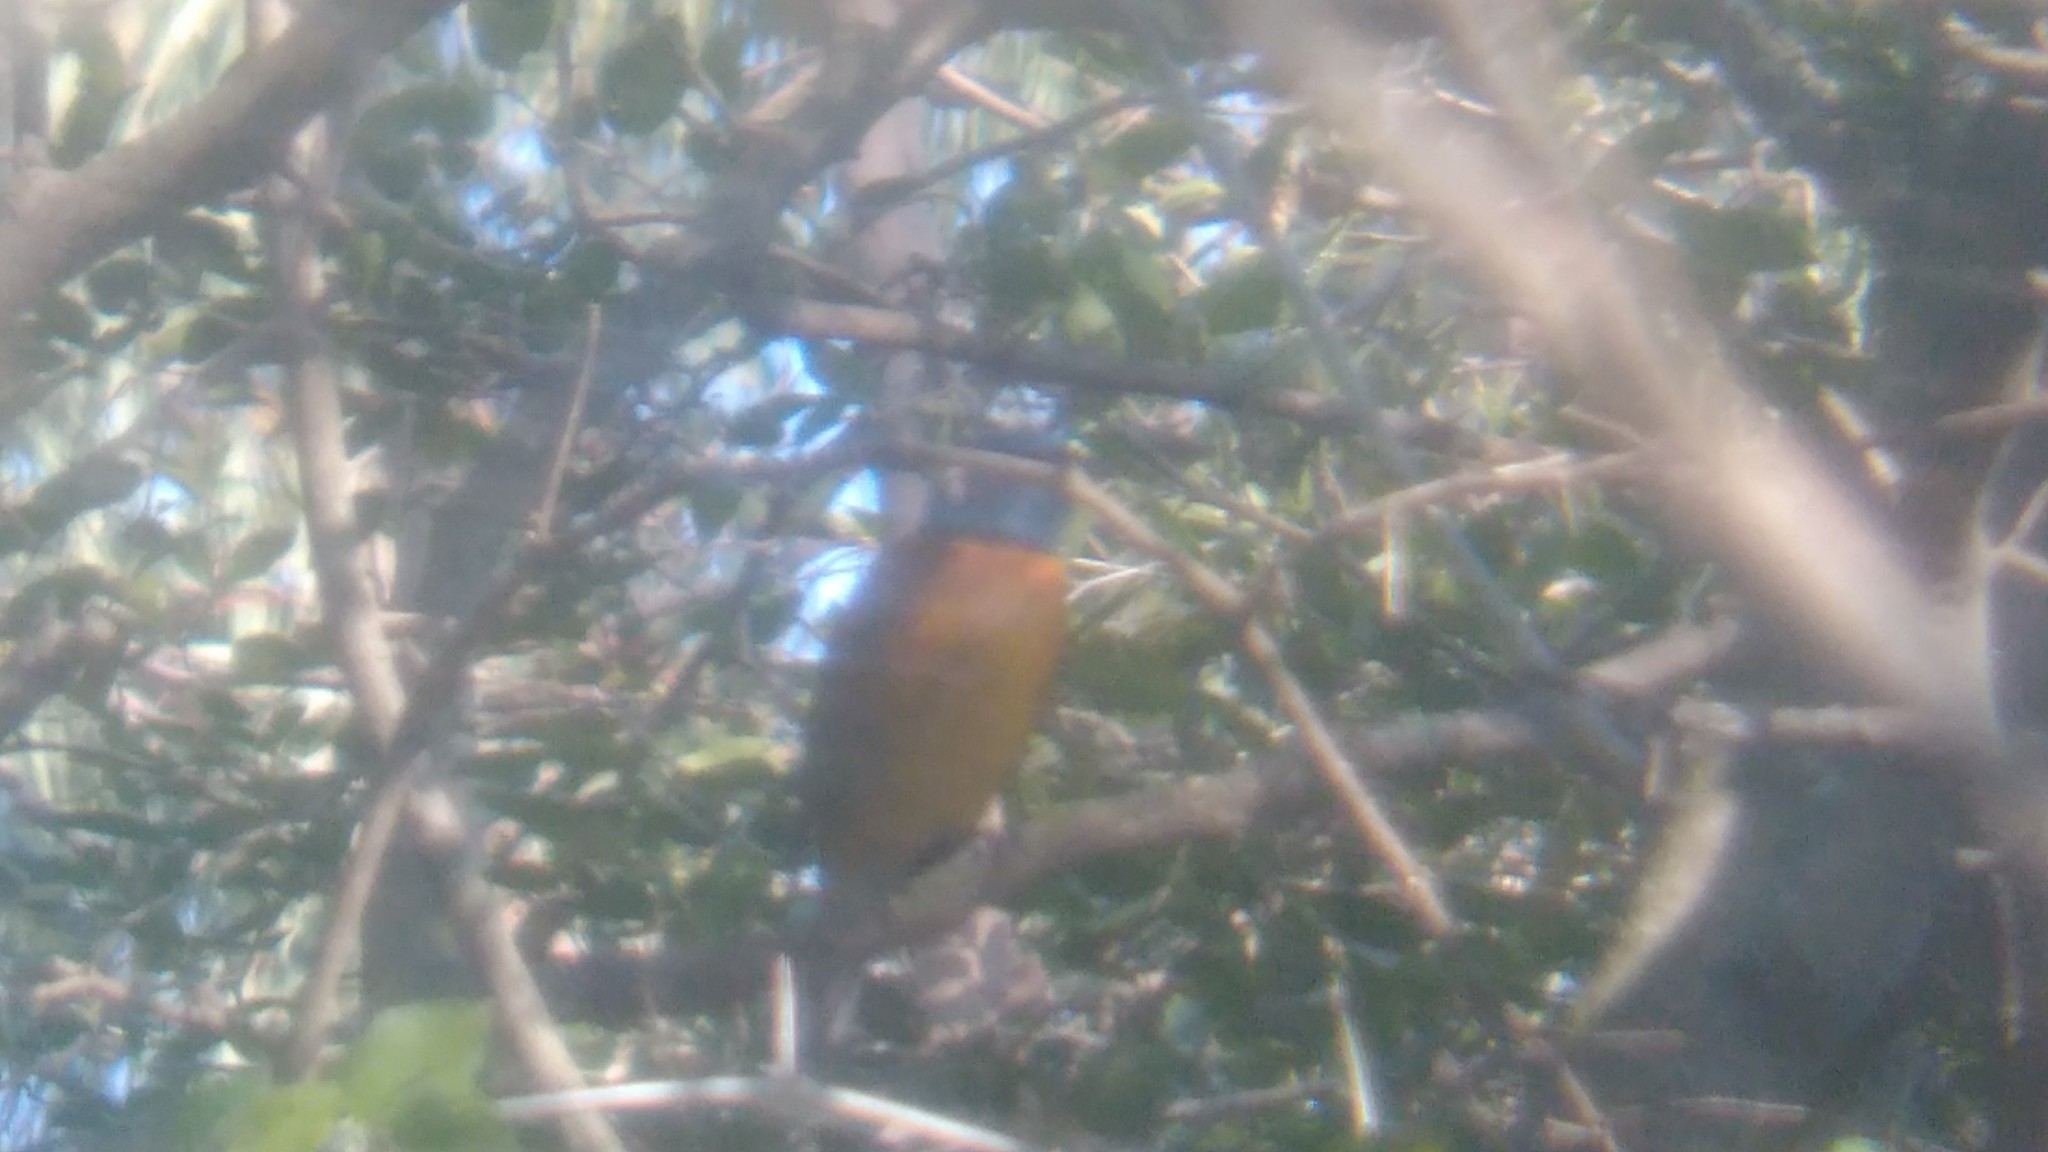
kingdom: Animalia
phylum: Chordata
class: Aves
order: Passeriformes
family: Thraupidae
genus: Rauenia
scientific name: Rauenia bonariensis
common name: Blue-and-yellow tanager
